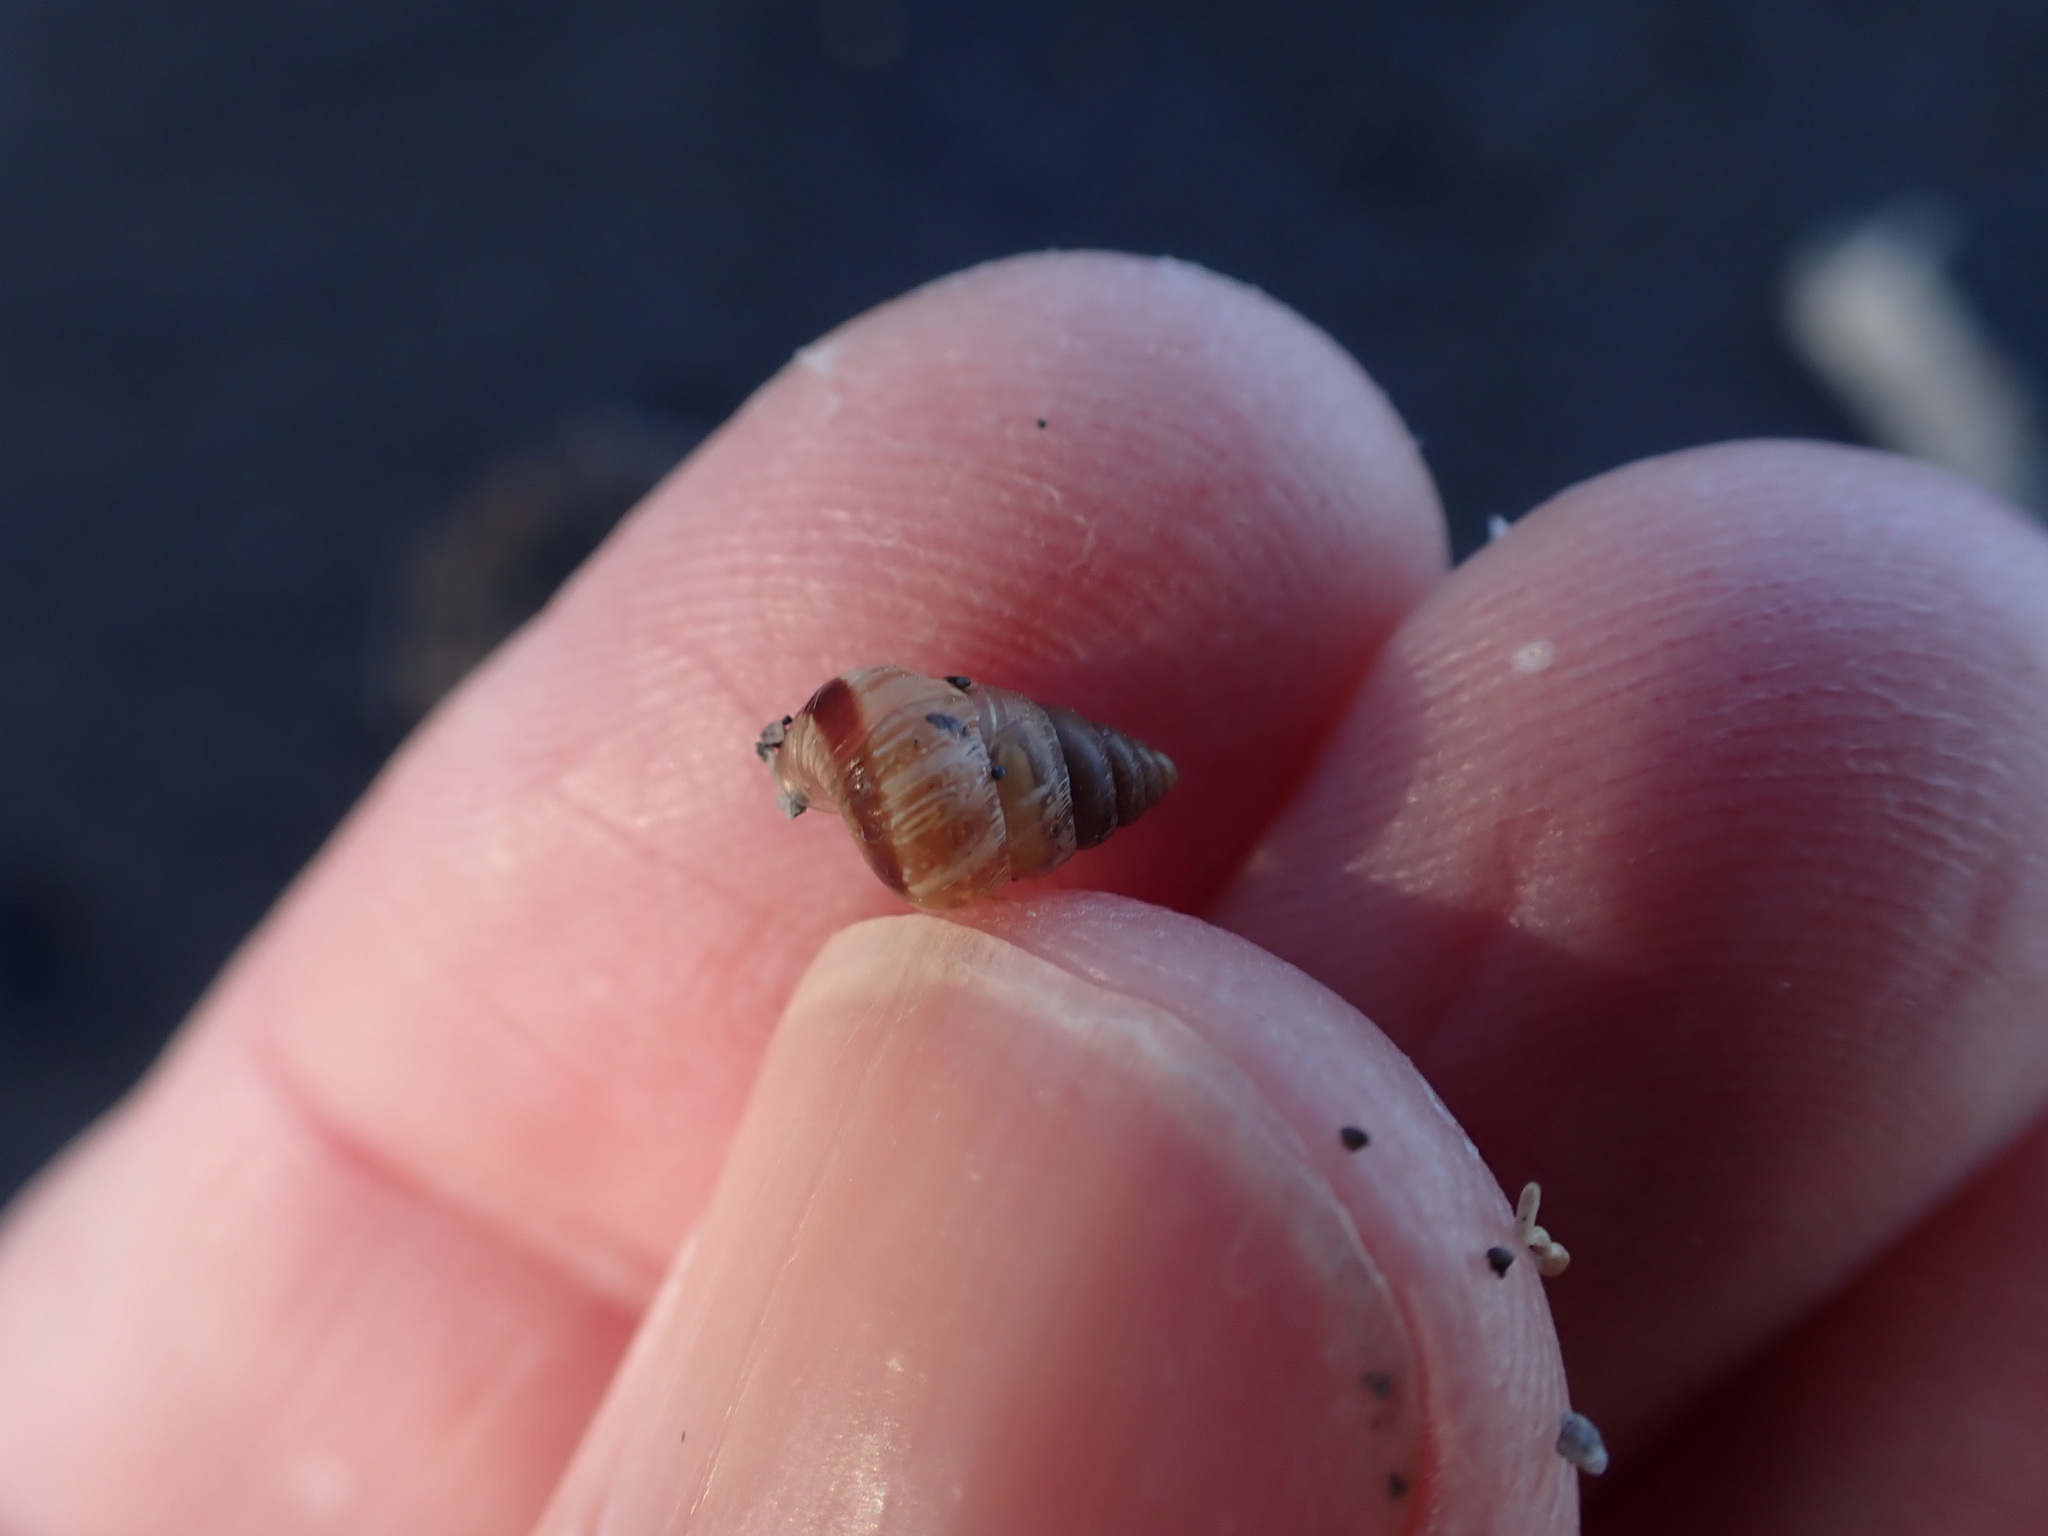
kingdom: Animalia
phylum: Mollusca
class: Gastropoda
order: Stylommatophora
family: Geomitridae
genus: Cochlicella
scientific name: Cochlicella barbara
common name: Potbellied helicellid
